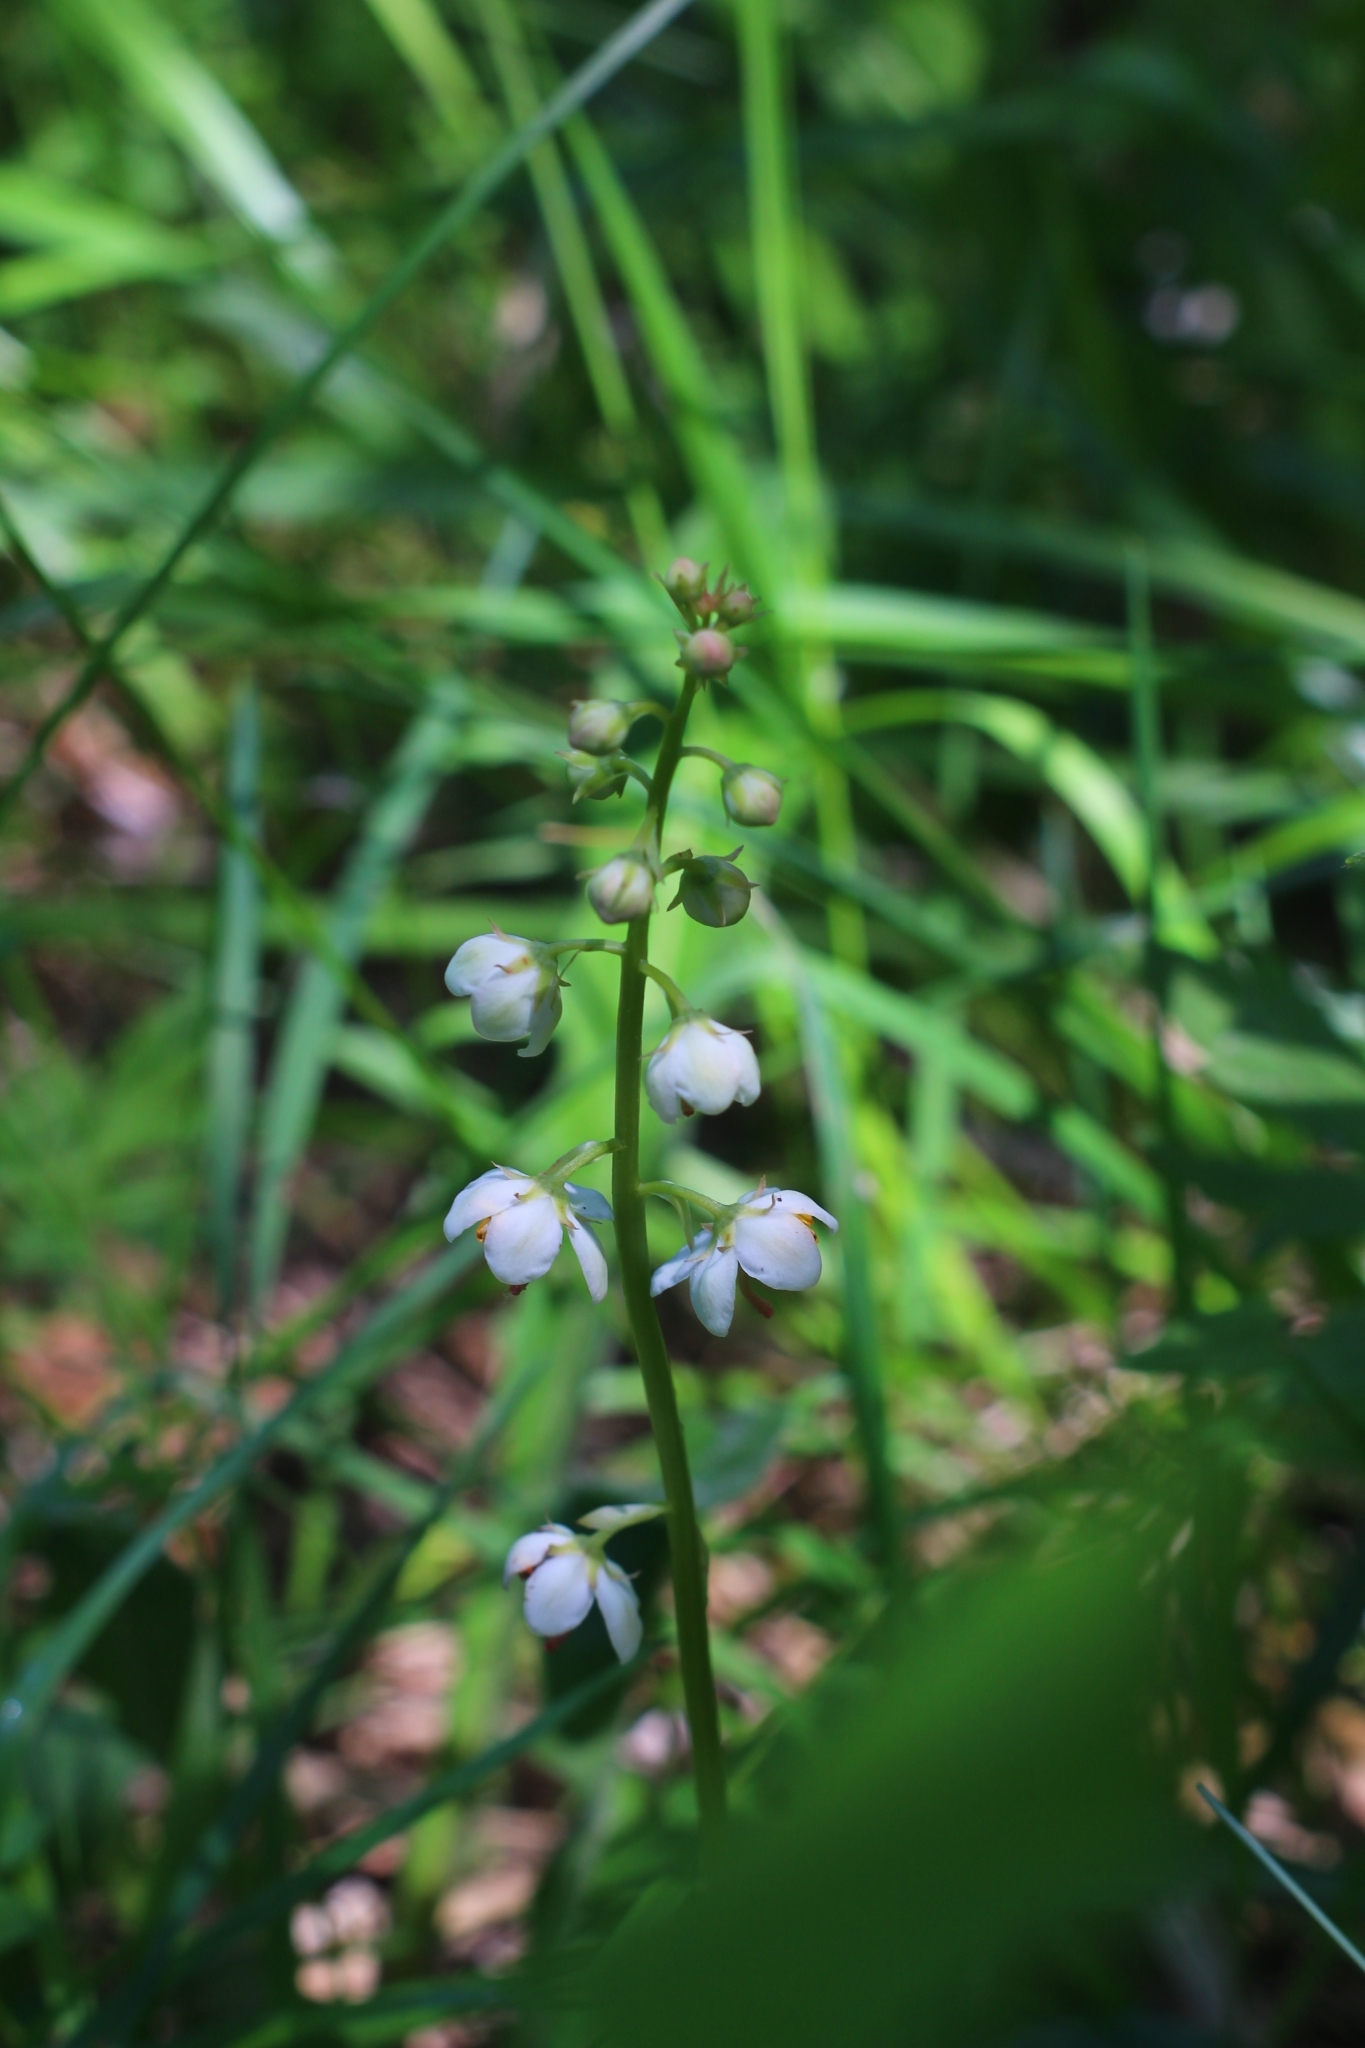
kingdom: Plantae
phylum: Tracheophyta
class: Magnoliopsida
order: Ericales
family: Ericaceae
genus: Pyrola
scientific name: Pyrola rotundifolia
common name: Round-leaved wintergreen
